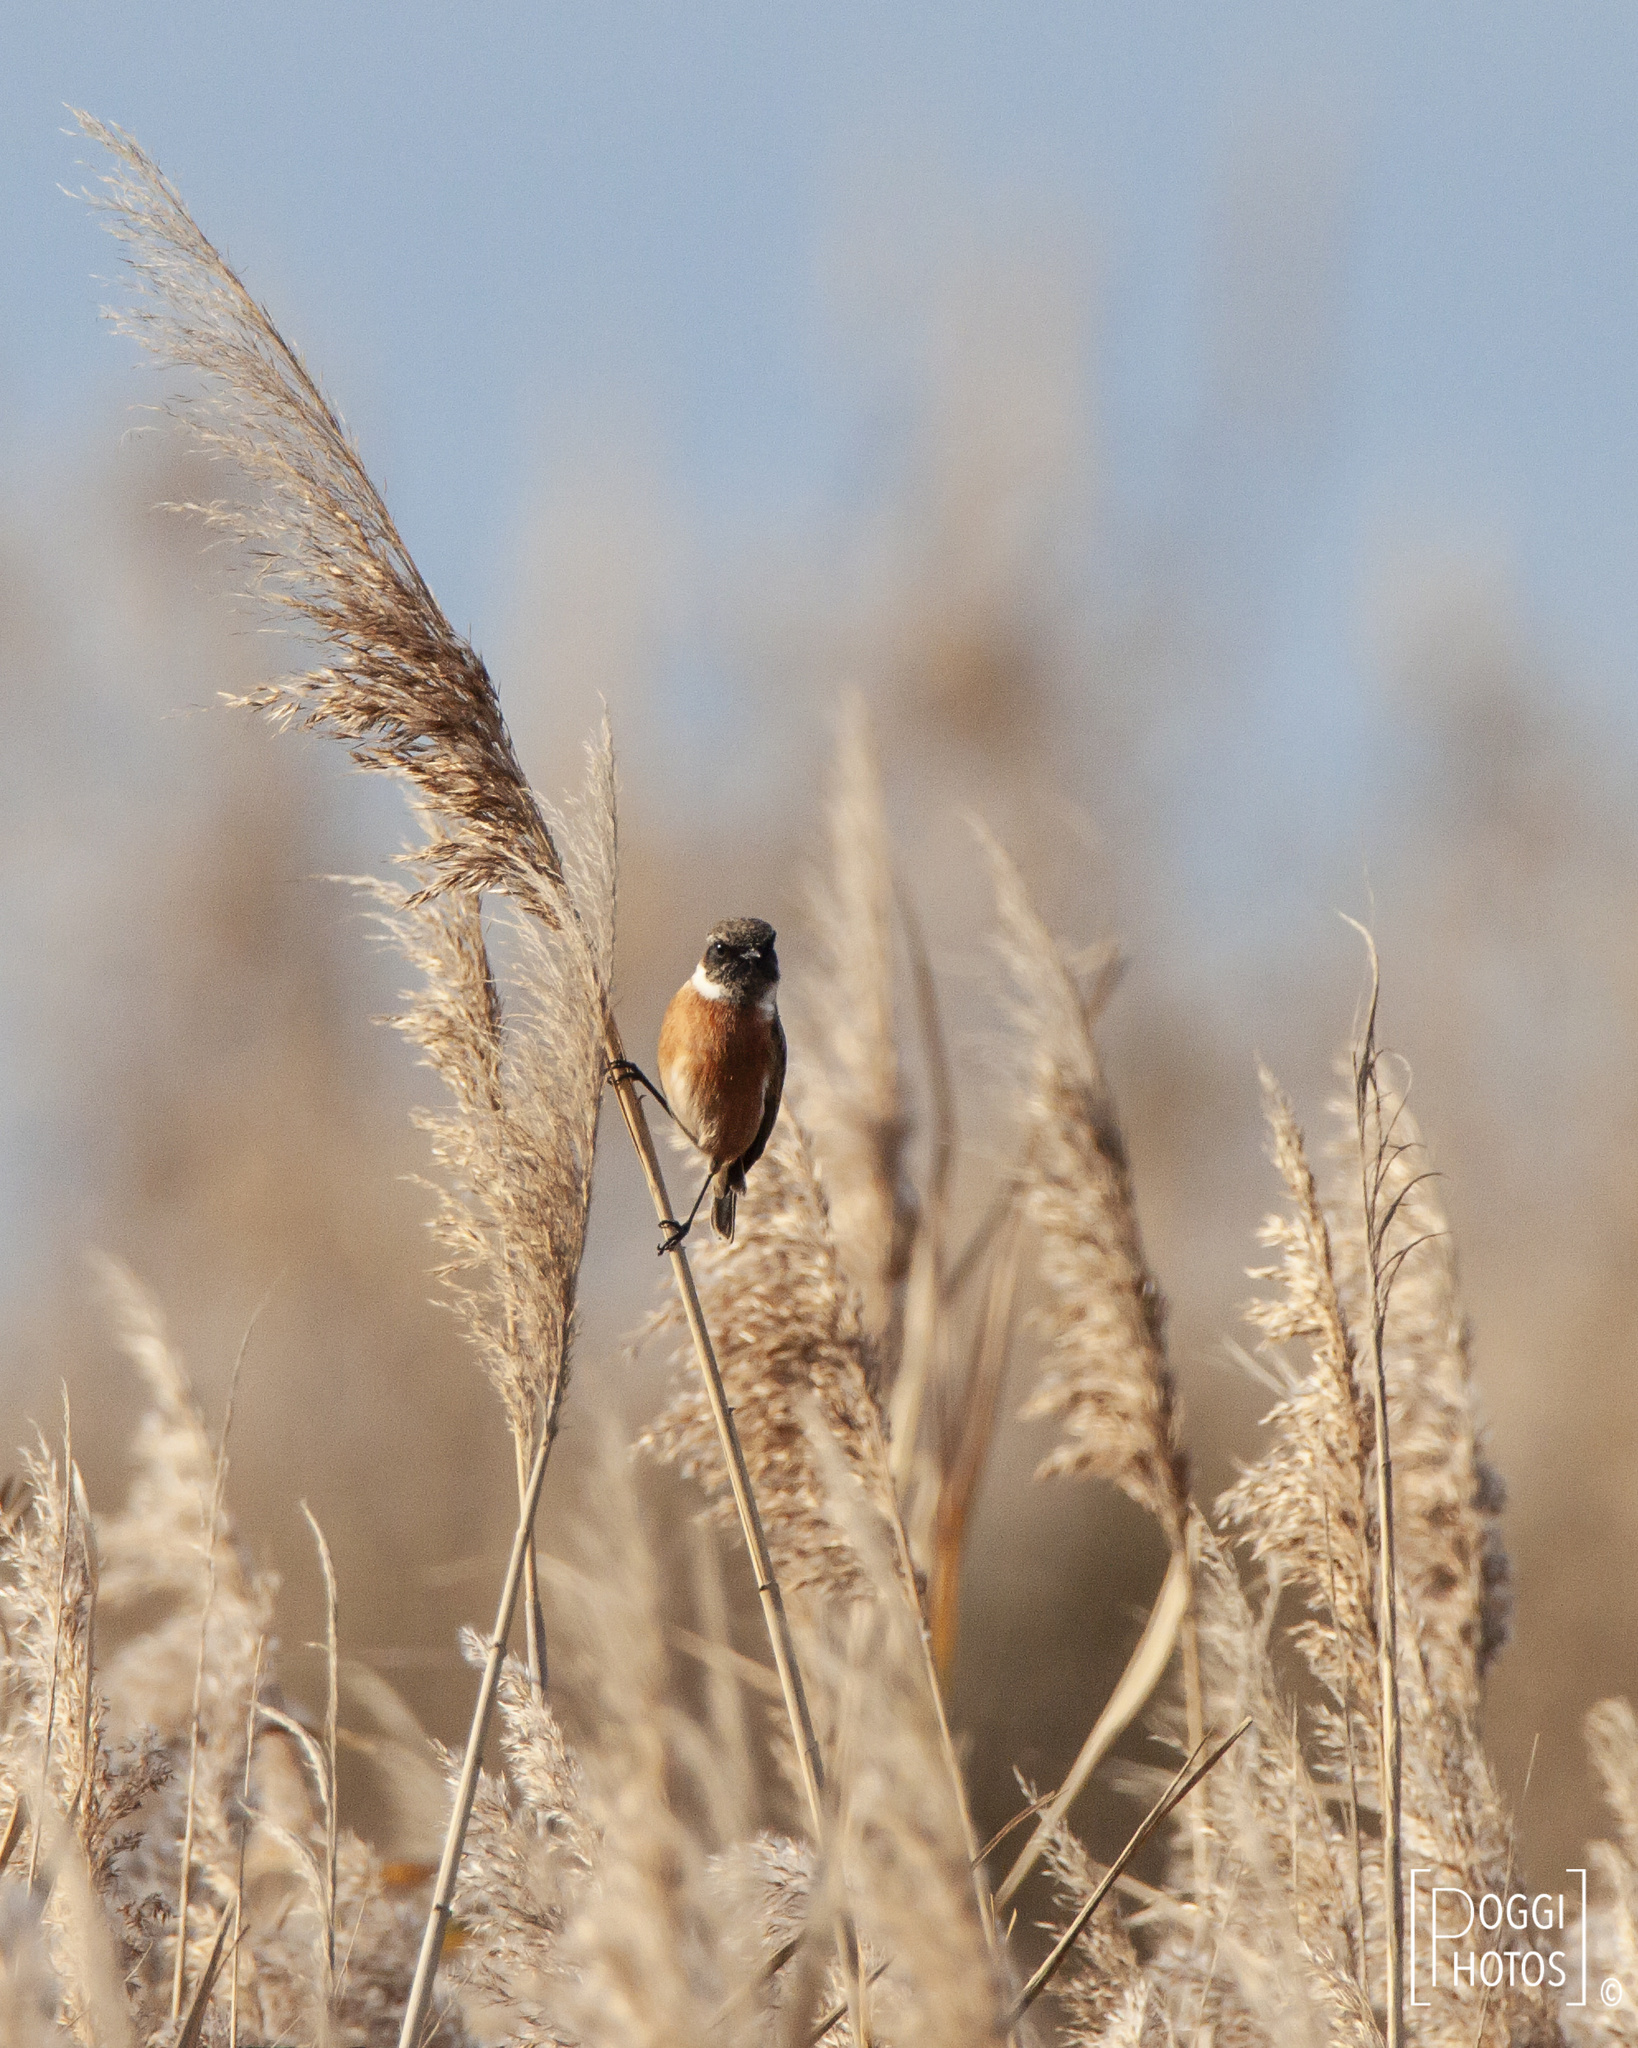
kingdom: Animalia
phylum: Chordata
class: Aves
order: Passeriformes
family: Muscicapidae
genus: Saxicola
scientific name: Saxicola rubicola
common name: European stonechat
